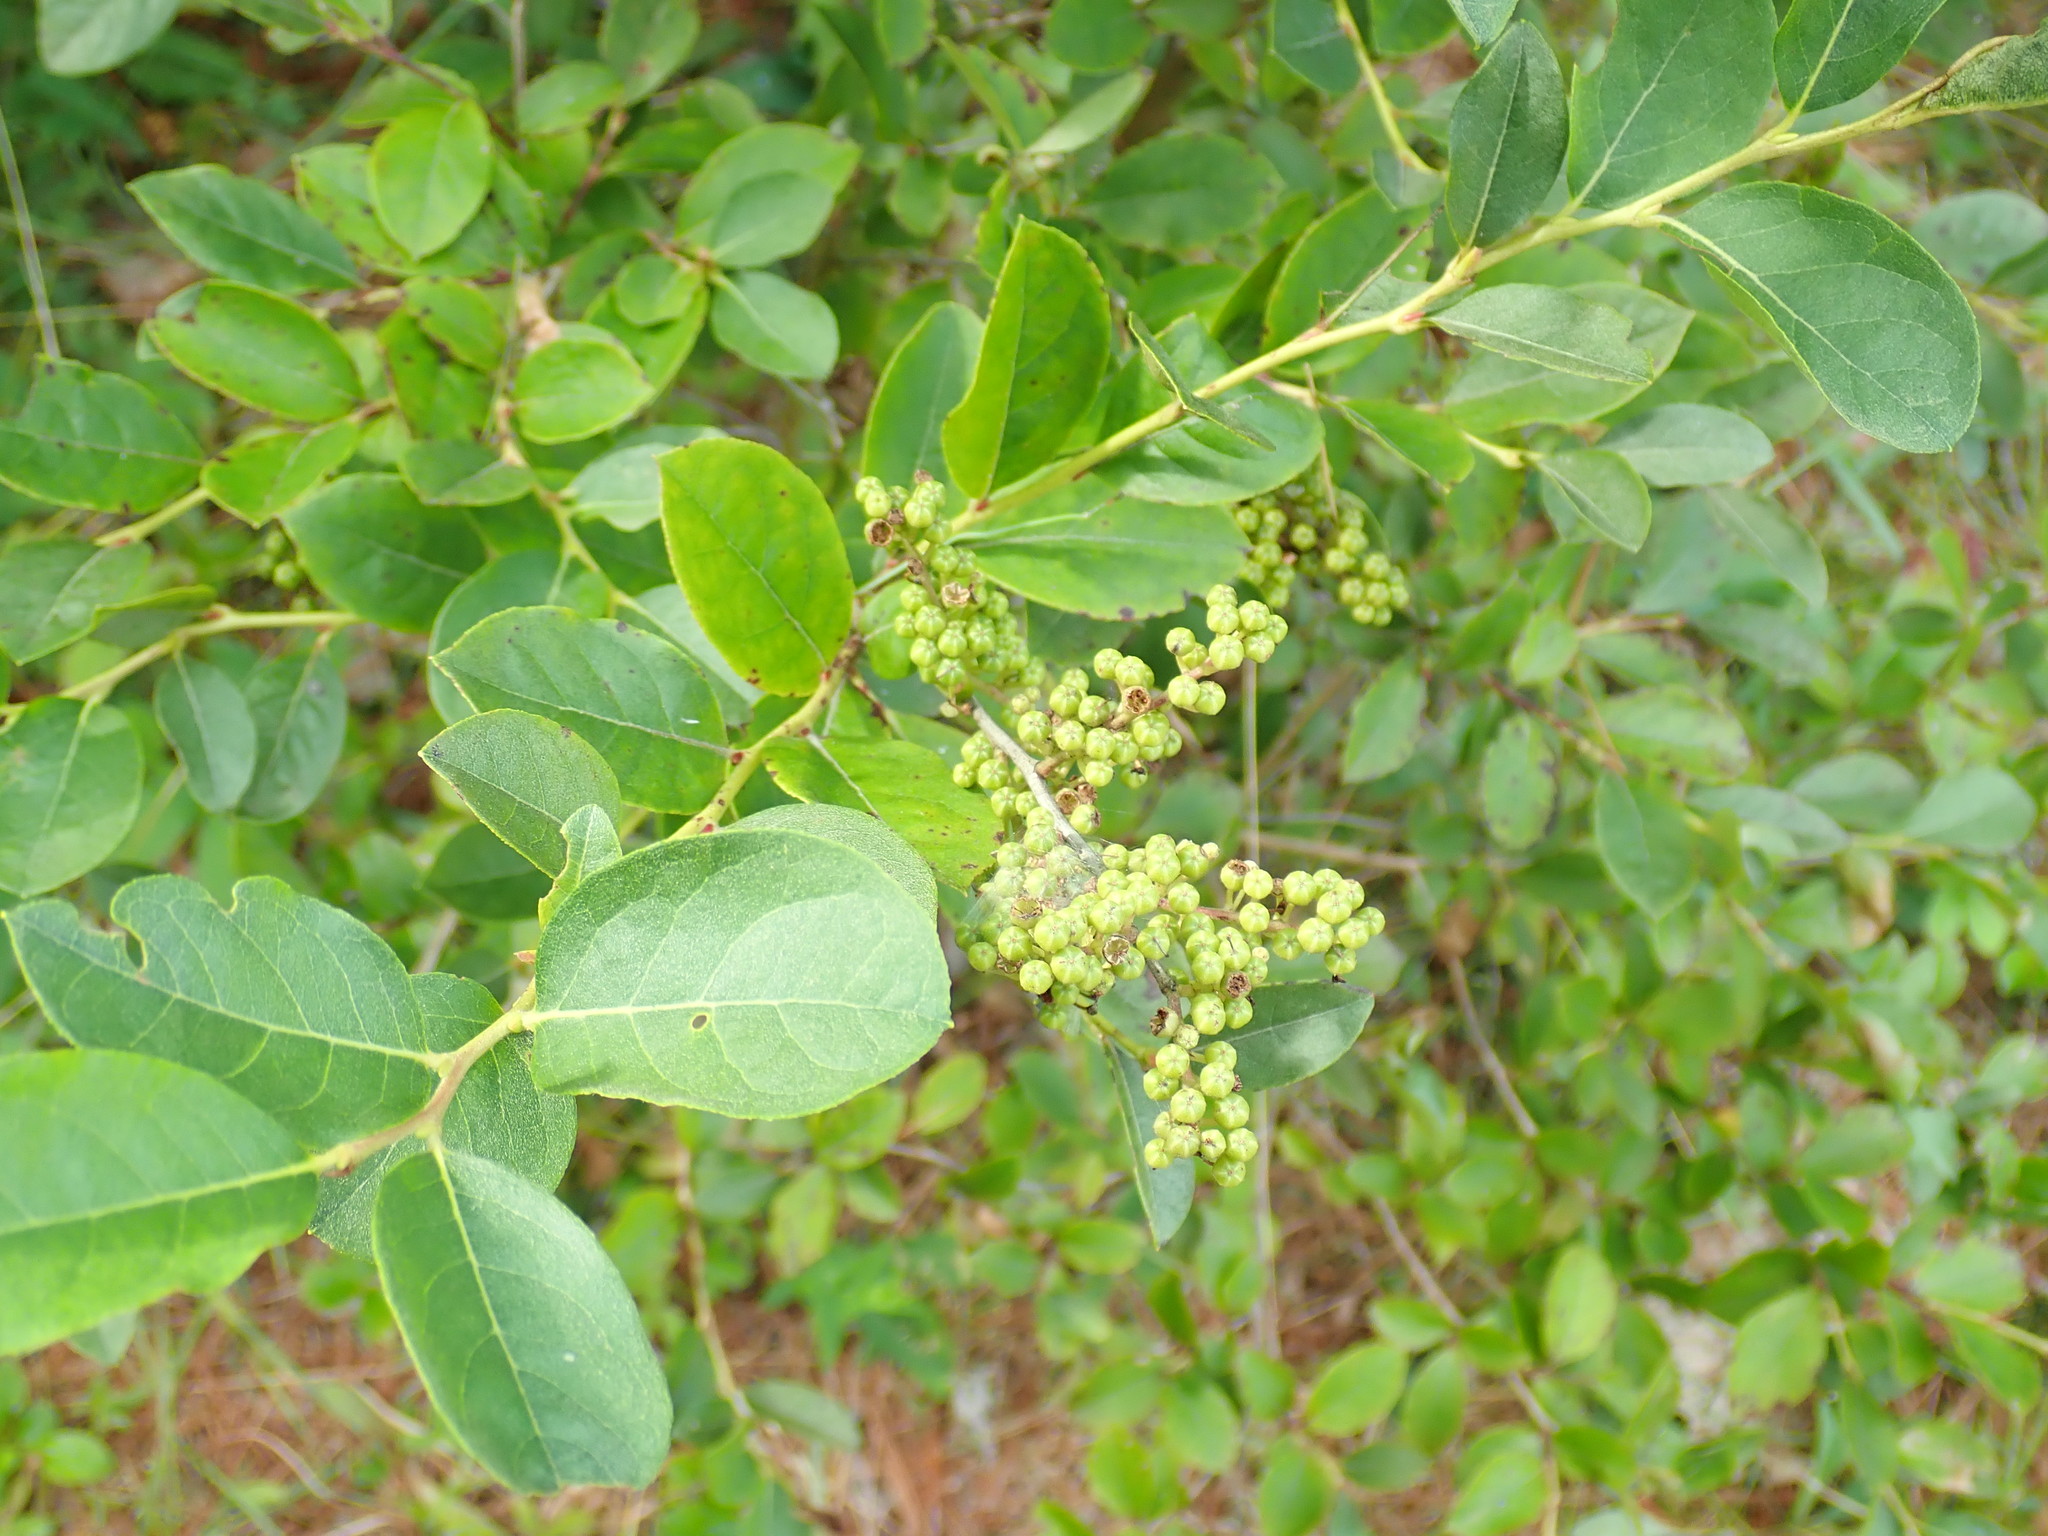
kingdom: Plantae
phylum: Tracheophyta
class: Magnoliopsida
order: Ericales
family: Ericaceae
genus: Lyonia
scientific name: Lyonia ligustrina
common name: Maleberry
